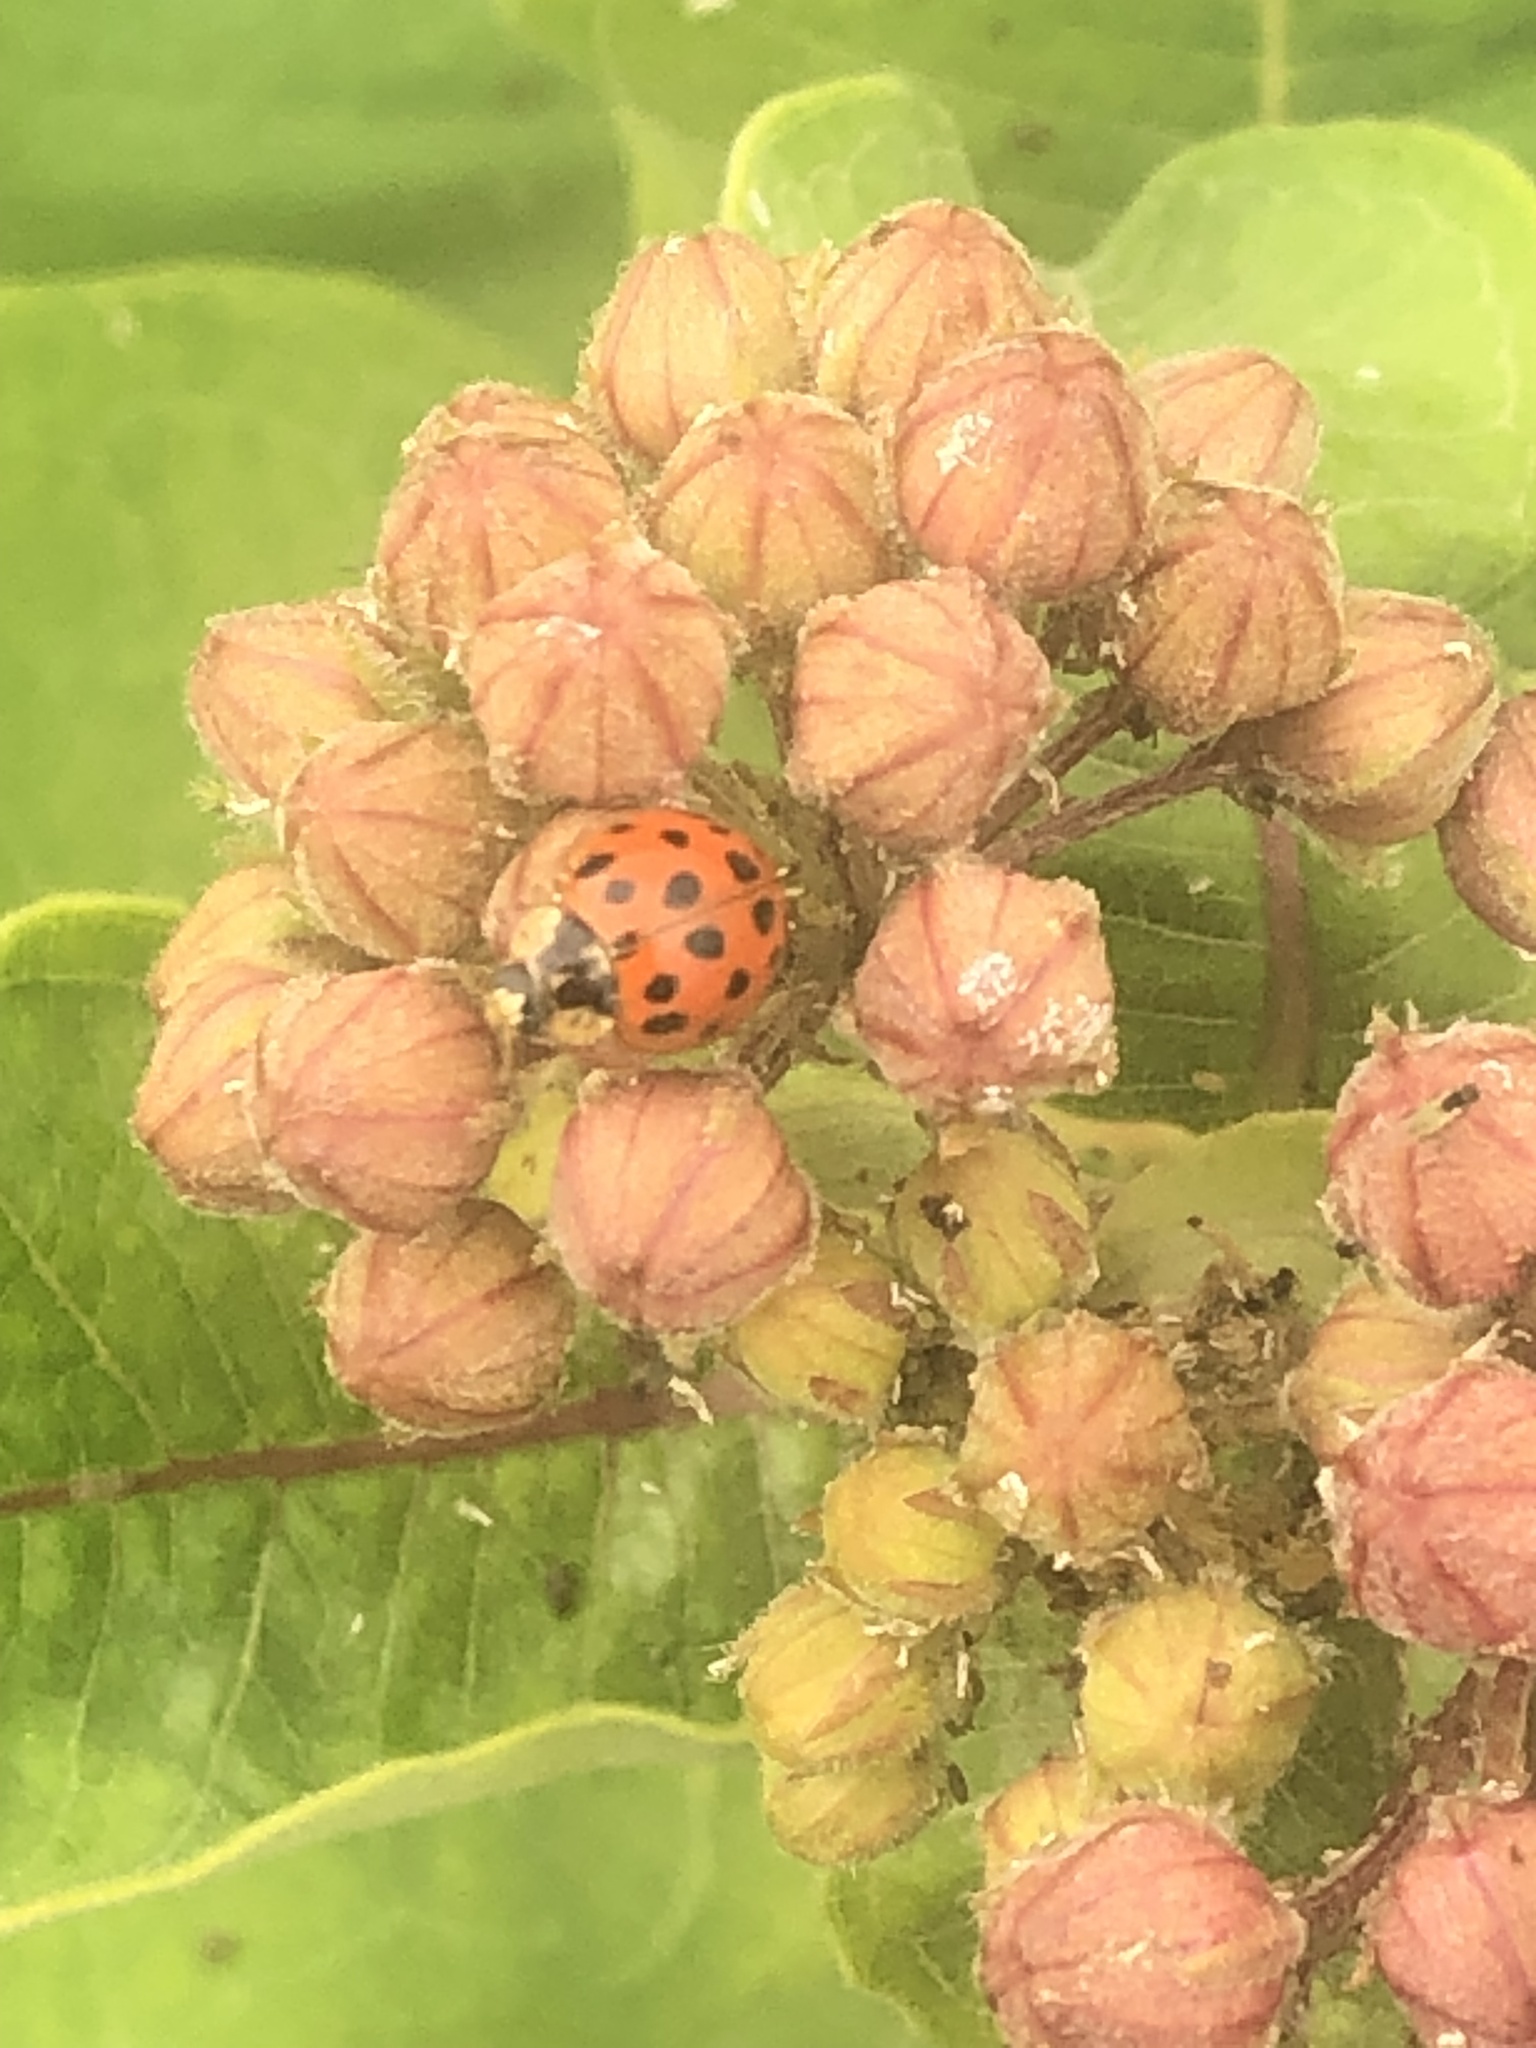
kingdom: Animalia
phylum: Arthropoda
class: Insecta
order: Coleoptera
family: Coccinellidae
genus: Harmonia
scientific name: Harmonia axyridis
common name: Harlequin ladybird
